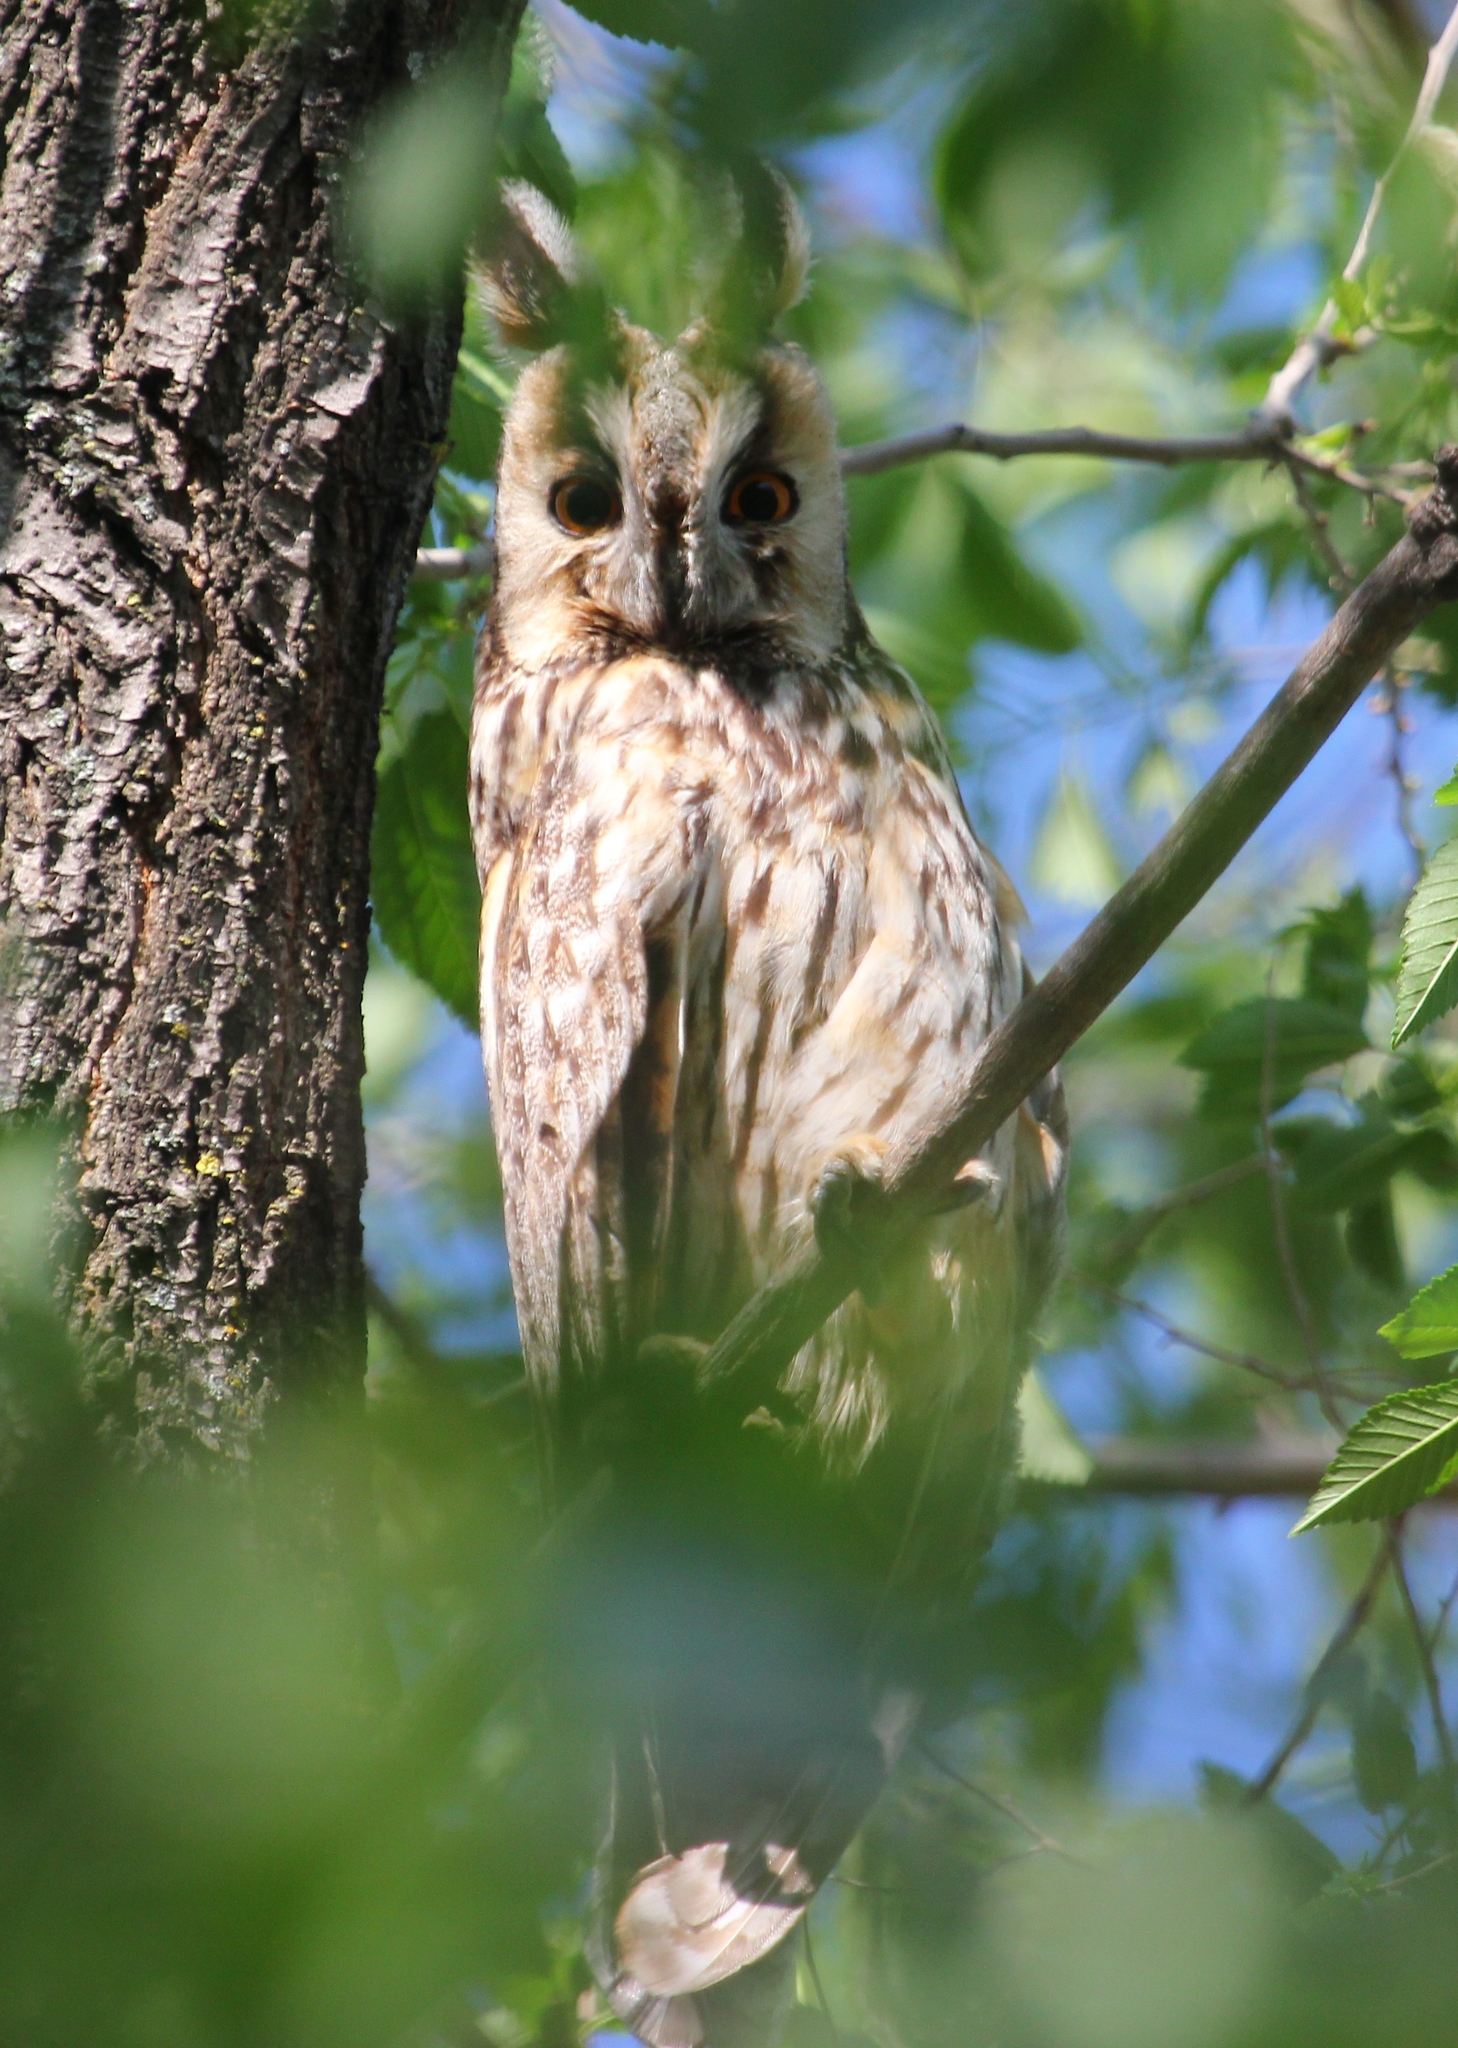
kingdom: Animalia
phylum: Chordata
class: Aves
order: Strigiformes
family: Strigidae
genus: Asio
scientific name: Asio otus
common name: Long-eared owl
